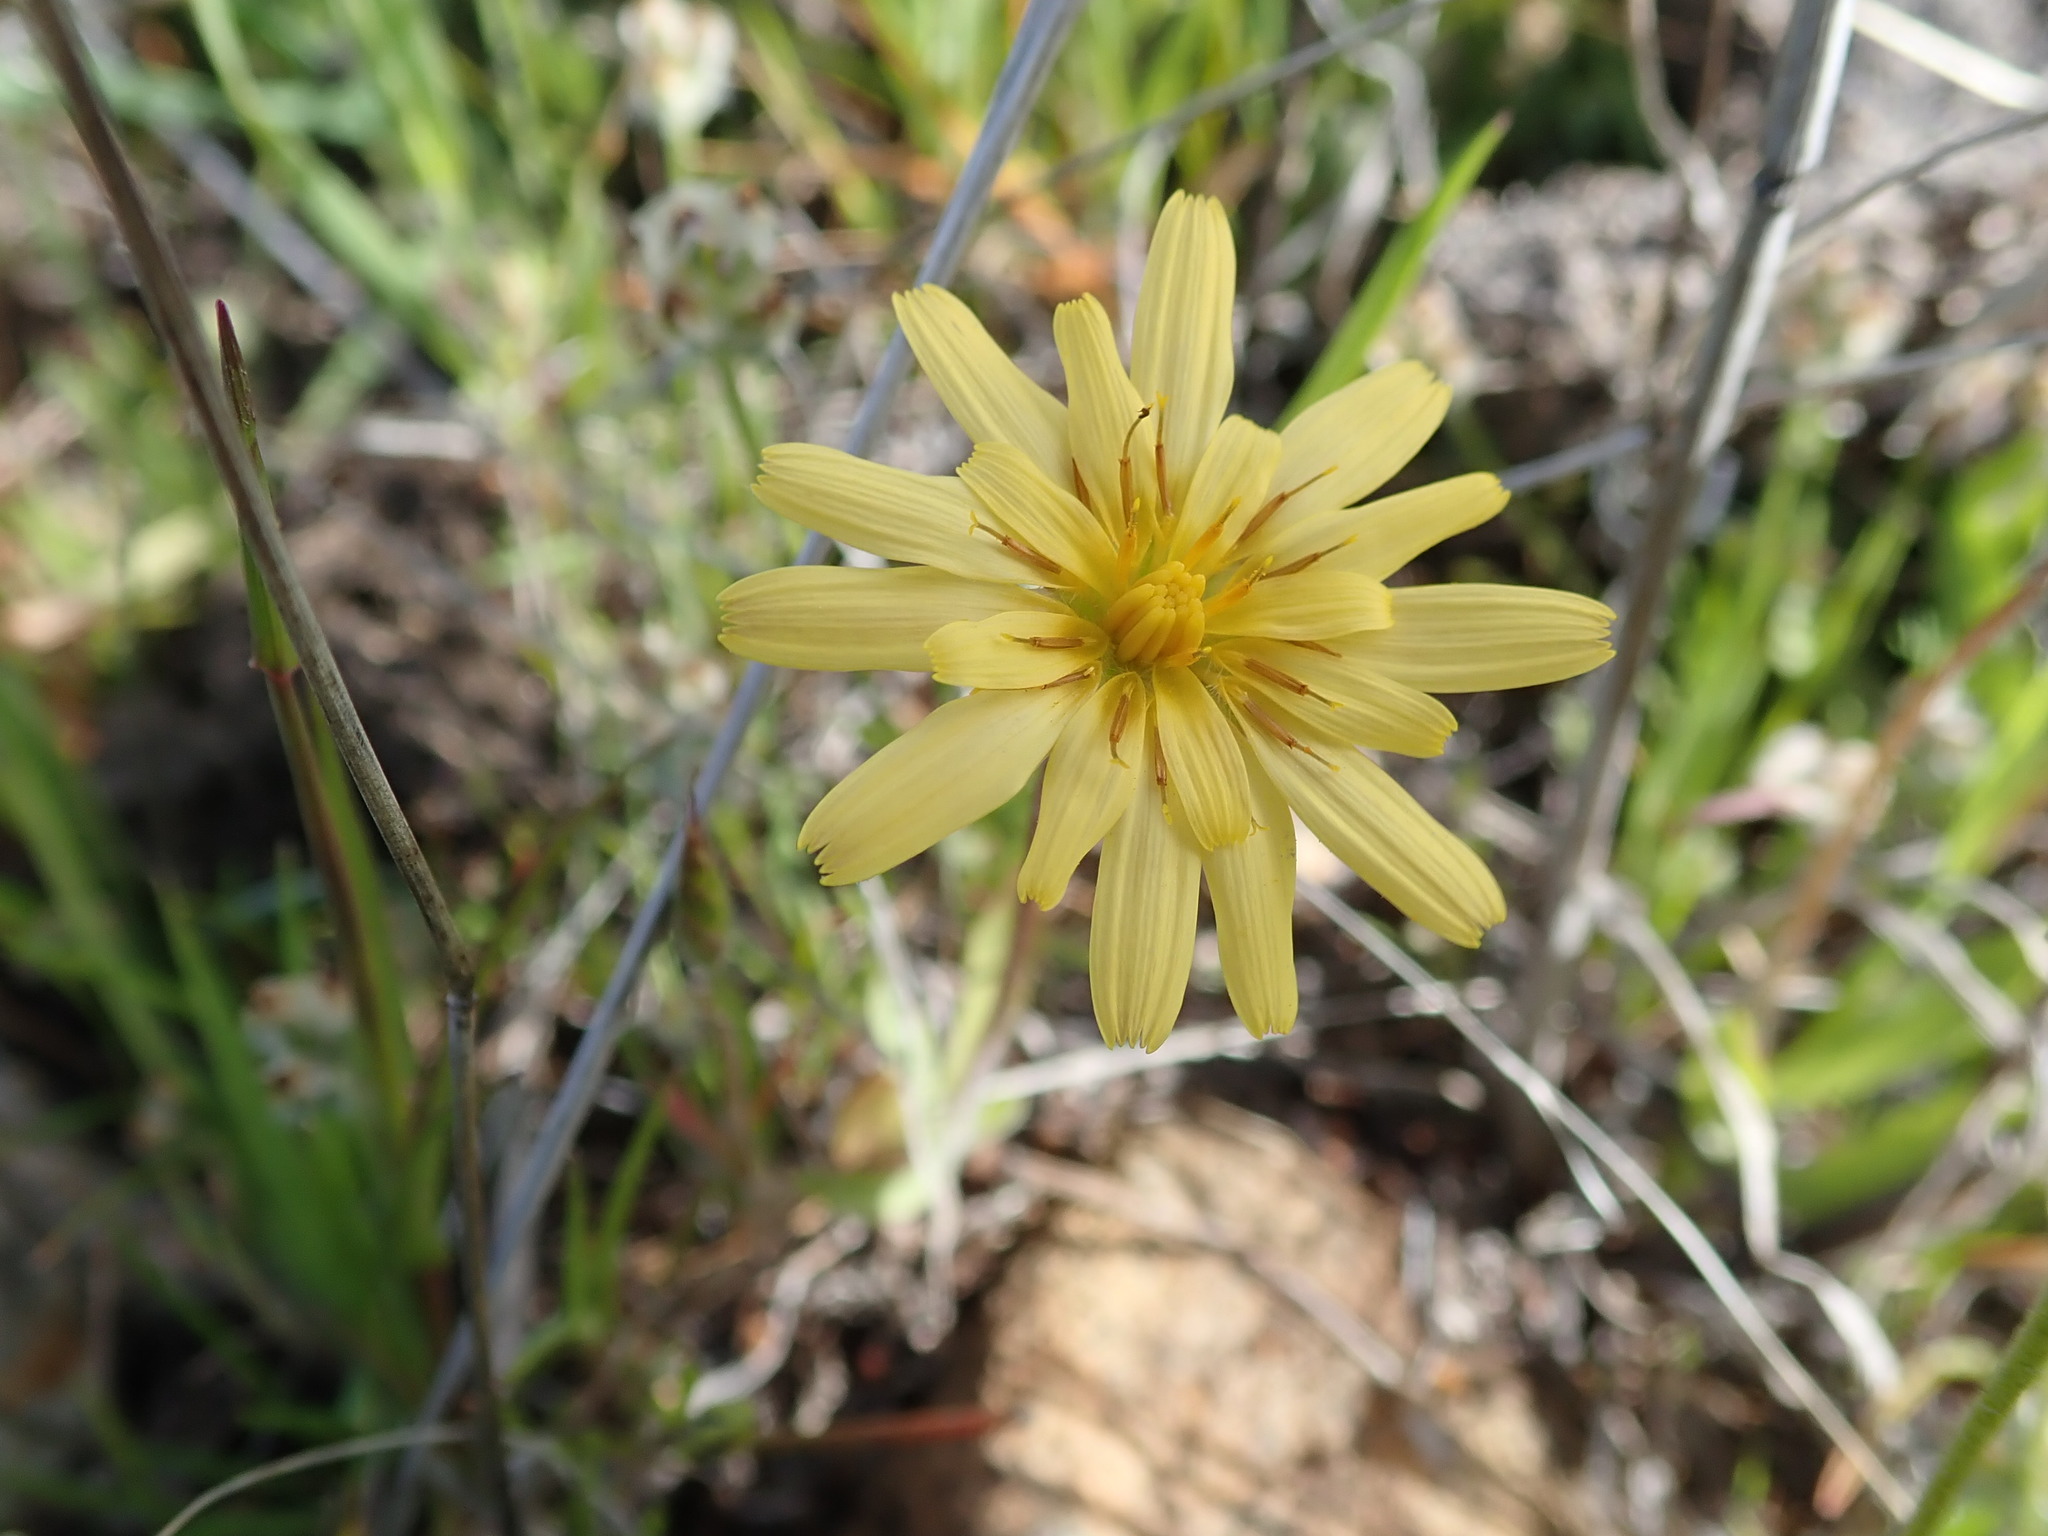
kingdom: Plantae
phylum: Tracheophyta
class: Magnoliopsida
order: Asterales
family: Asteraceae
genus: Agoseris
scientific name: Agoseris heterophylla
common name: Annual agoseris
